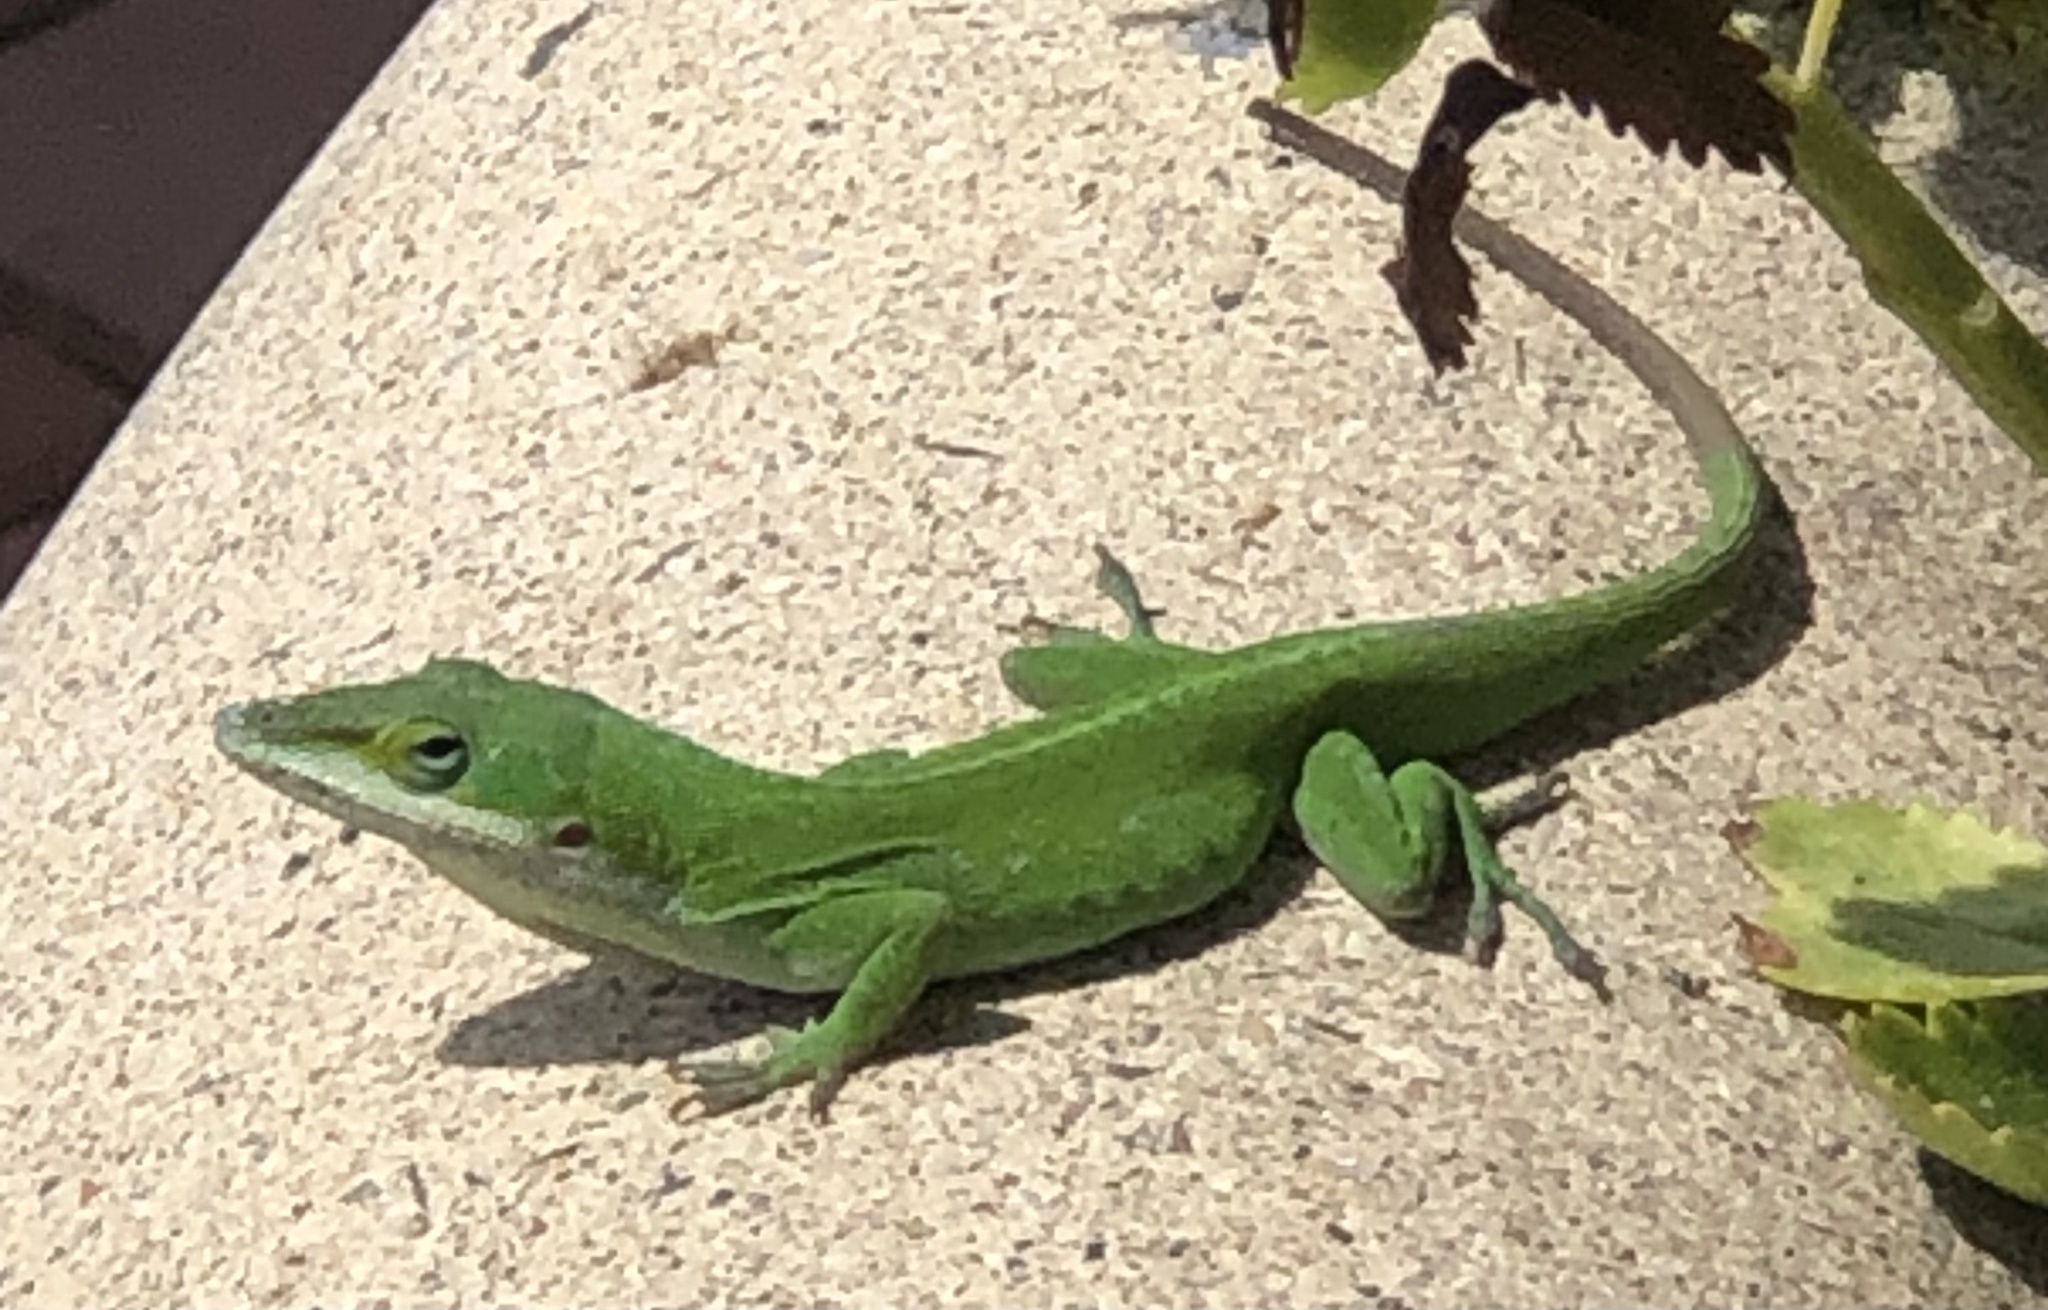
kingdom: Animalia
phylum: Chordata
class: Squamata
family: Dactyloidae
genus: Anolis
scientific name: Anolis carolinensis
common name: Green anole
